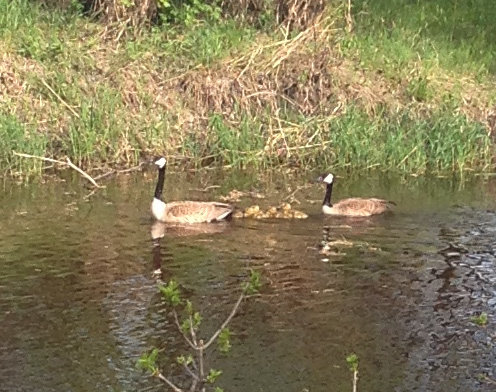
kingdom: Animalia
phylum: Chordata
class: Aves
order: Anseriformes
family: Anatidae
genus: Branta
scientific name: Branta canadensis
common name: Canada goose
